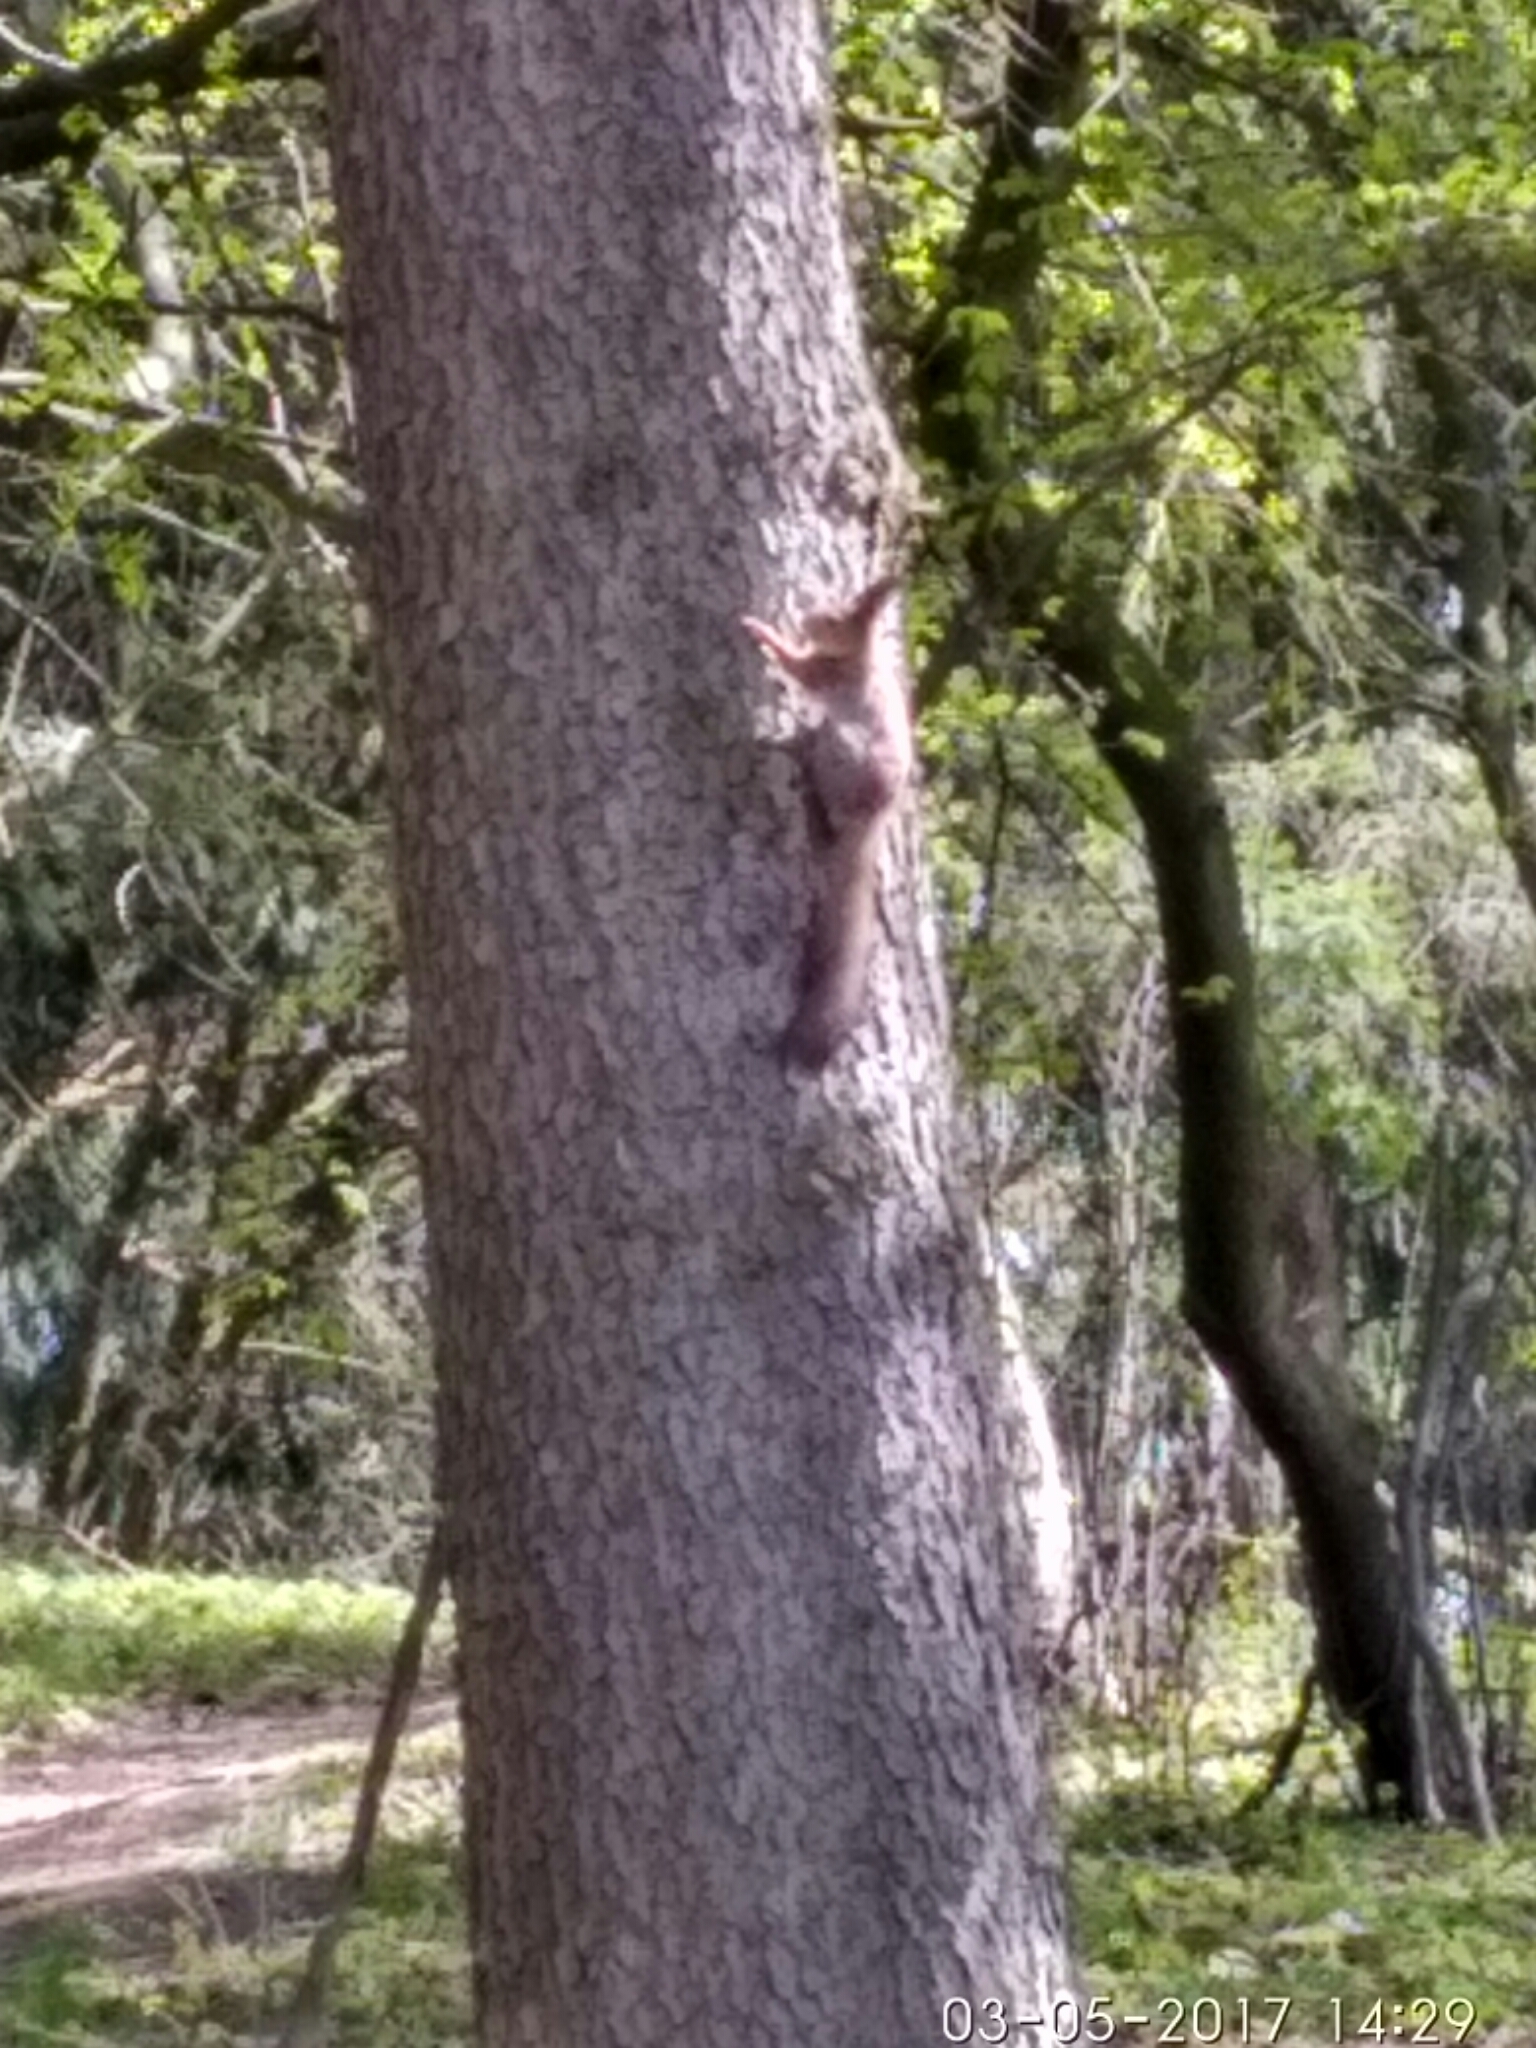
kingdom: Animalia
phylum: Chordata
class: Mammalia
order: Rodentia
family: Sciuridae
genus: Sciurus
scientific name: Sciurus vulgaris
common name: Eurasian red squirrel
